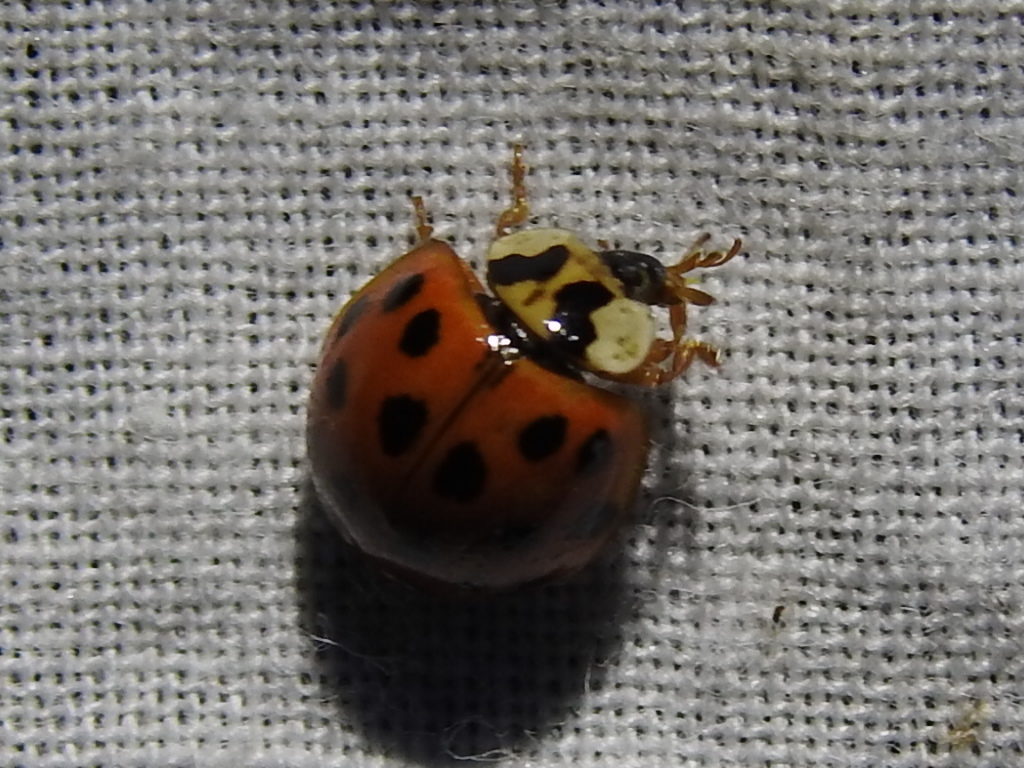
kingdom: Animalia
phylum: Arthropoda
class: Insecta
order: Coleoptera
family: Coccinellidae
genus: Harmonia
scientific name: Harmonia axyridis
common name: Harlequin ladybird
